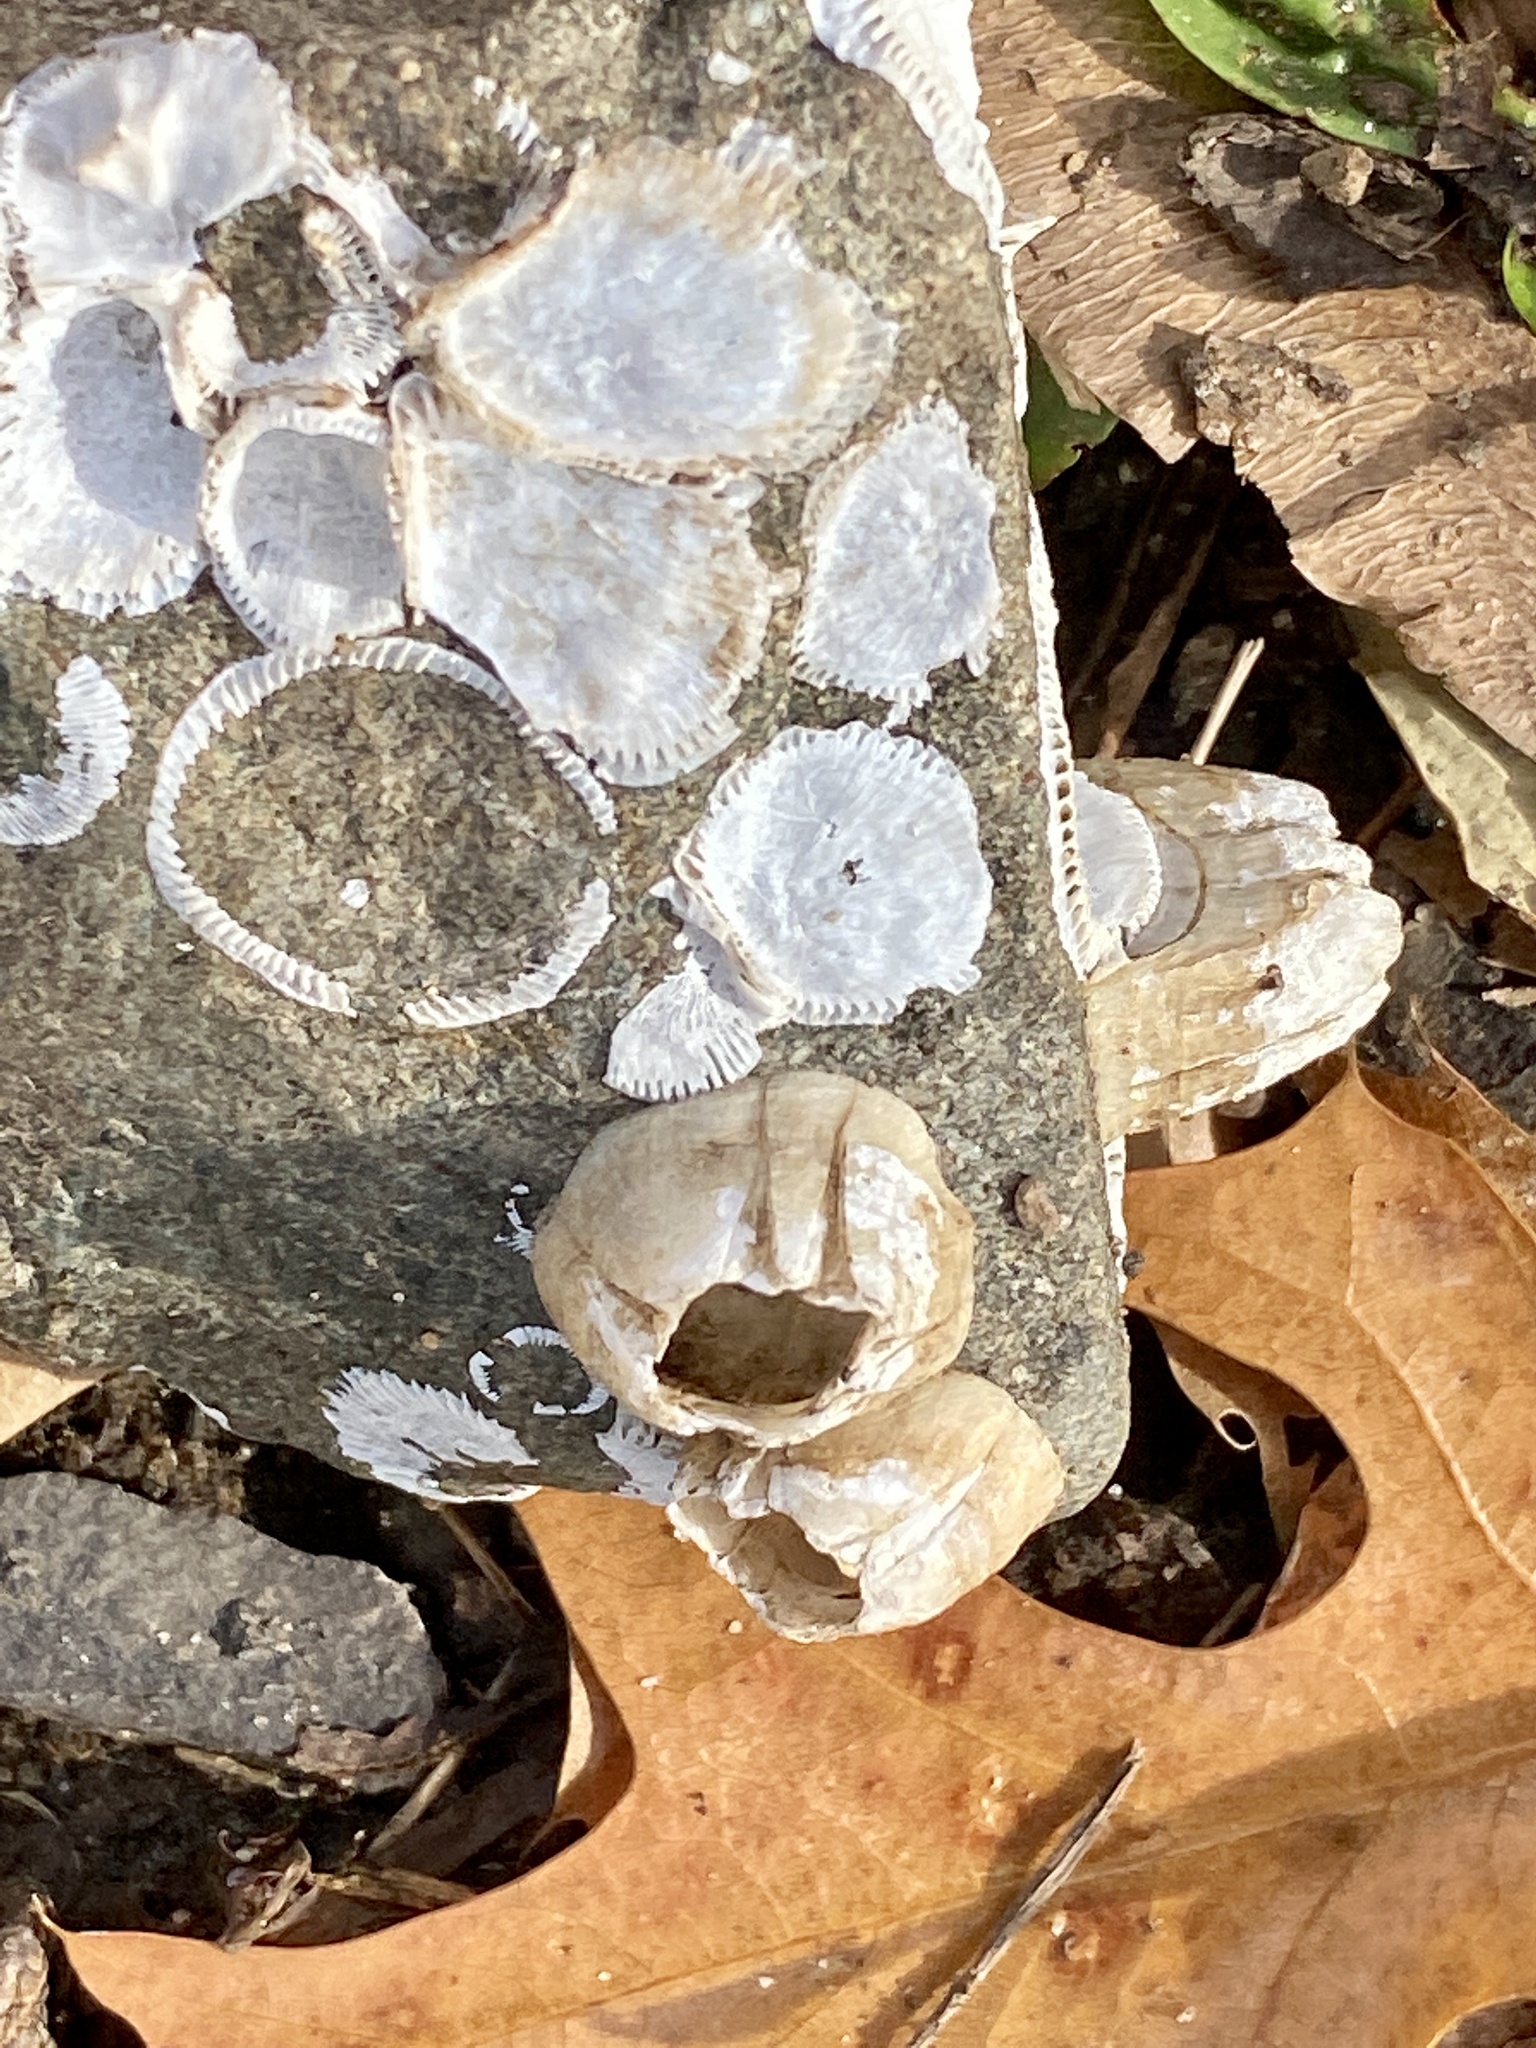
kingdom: Animalia
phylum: Arthropoda
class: Maxillopoda
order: Sessilia
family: Balanidae
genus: Amphibalanus
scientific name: Amphibalanus improvisus
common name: Bay barnacle
